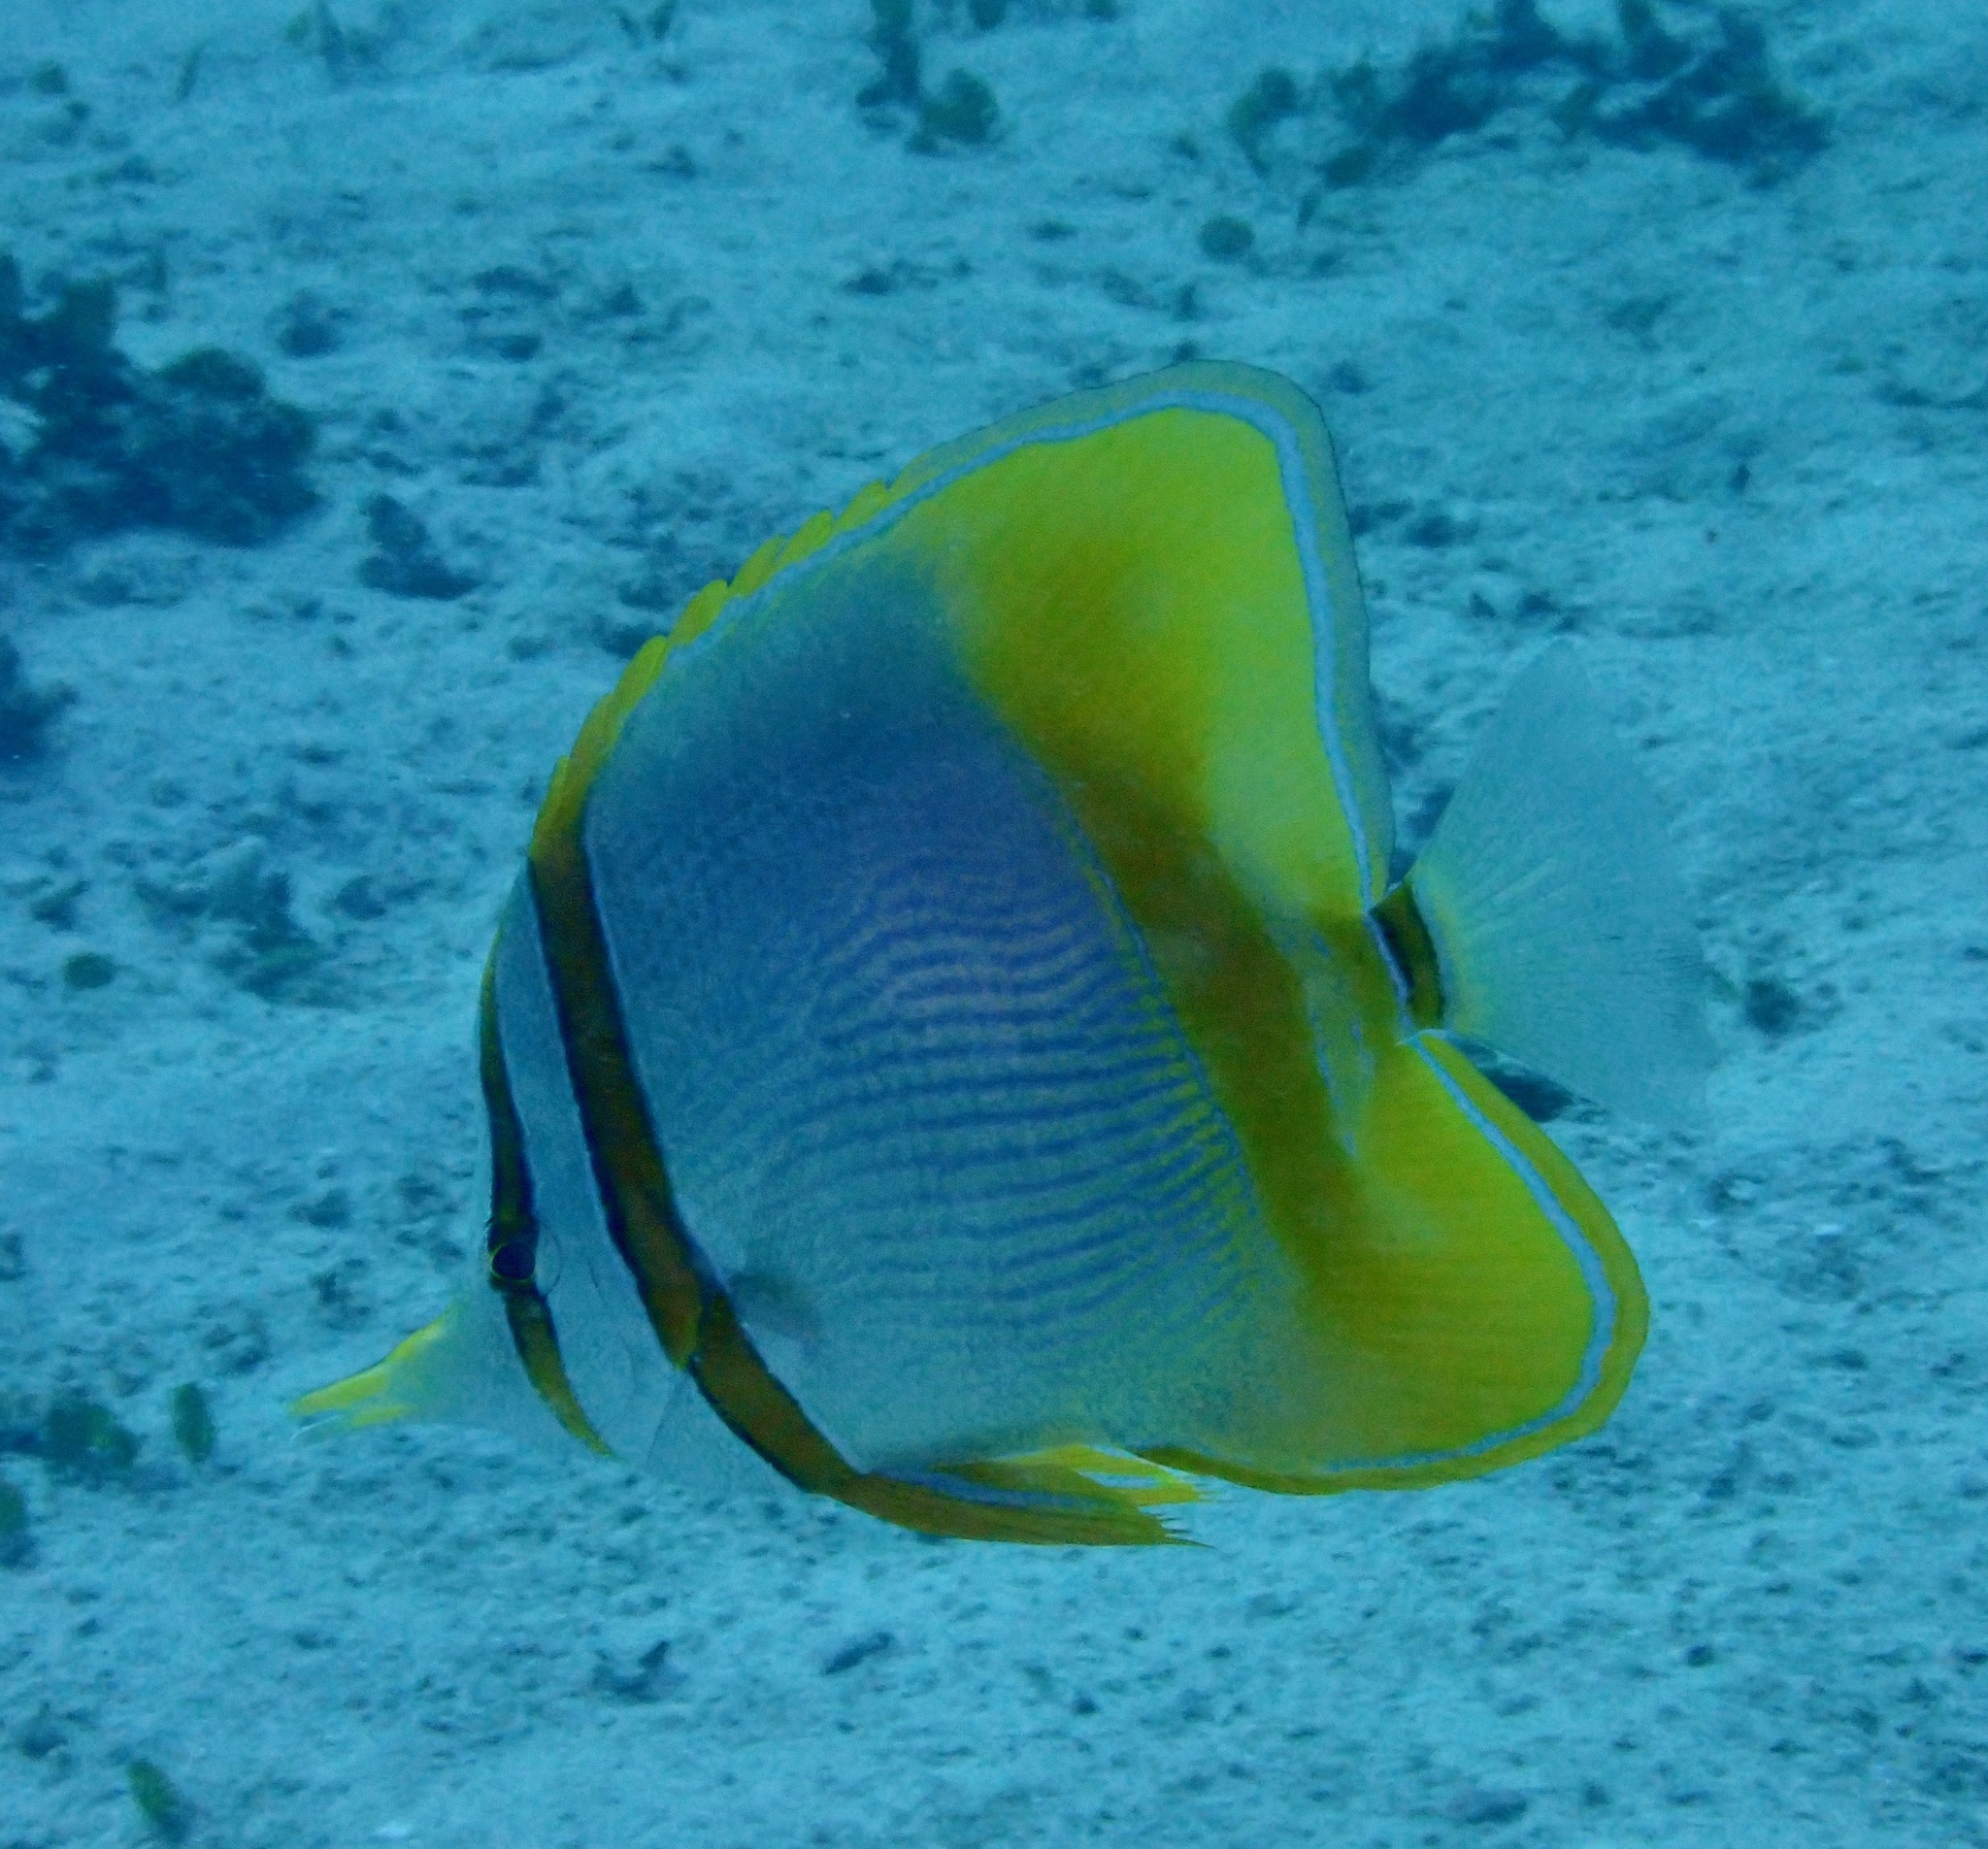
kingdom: Animalia
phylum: Chordata
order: Perciformes
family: Chaetodontidae
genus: Chelmon
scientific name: Chelmon marginalis
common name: Margined coralfish
